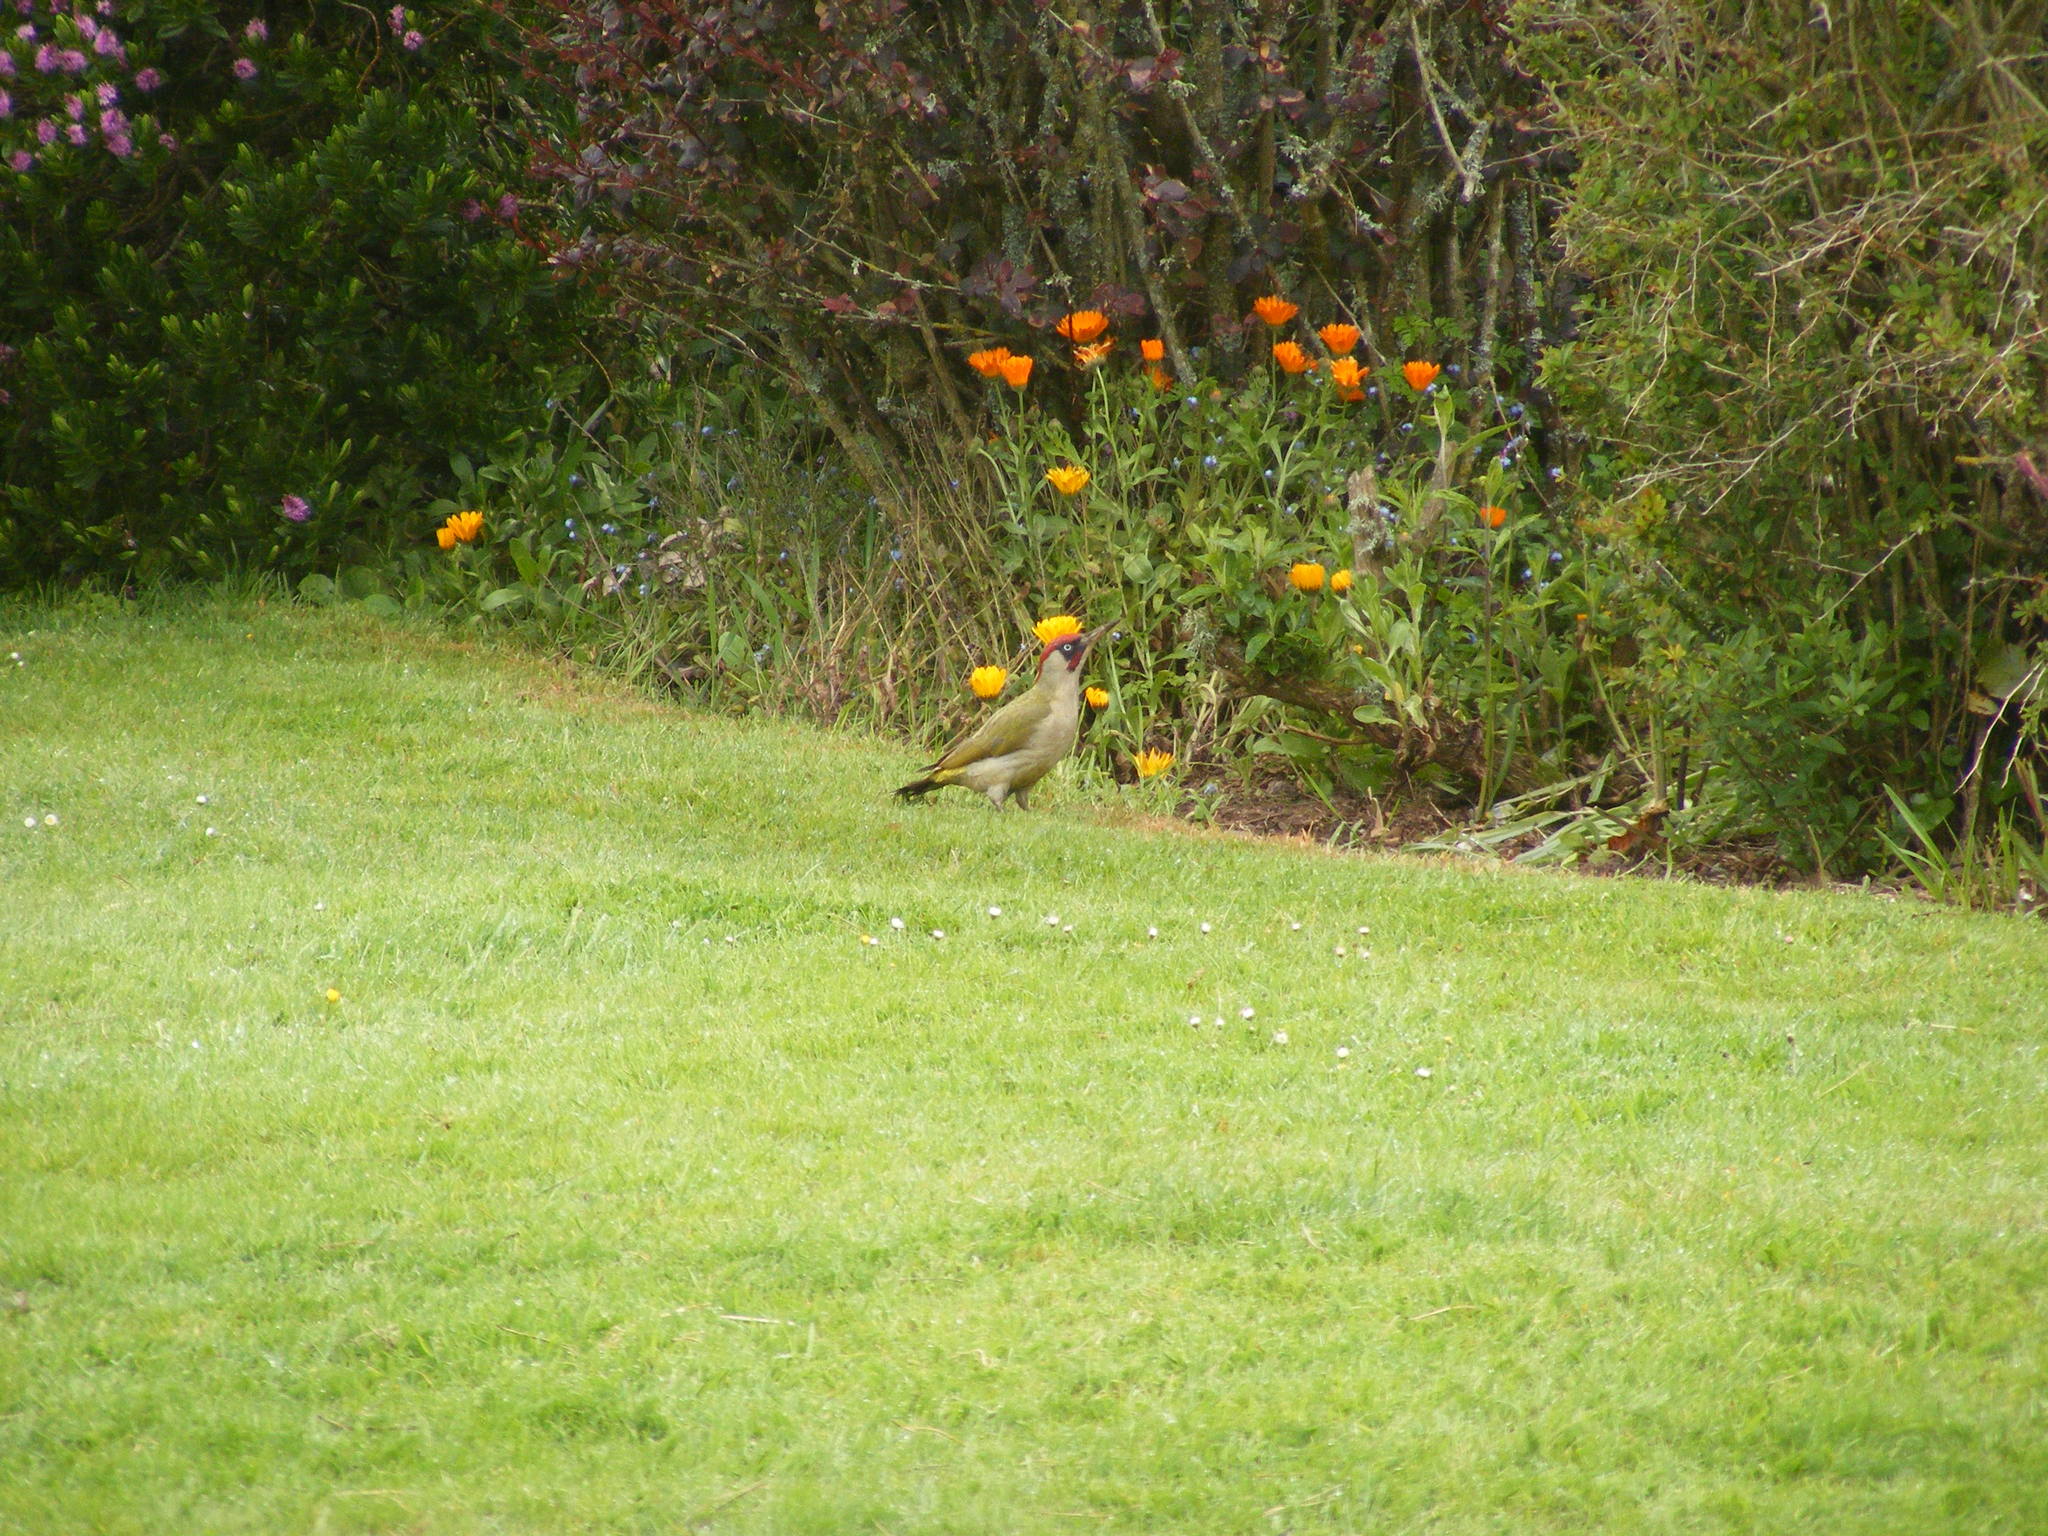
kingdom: Animalia
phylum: Chordata
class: Aves
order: Piciformes
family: Picidae
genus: Picus
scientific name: Picus viridis
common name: European green woodpecker
